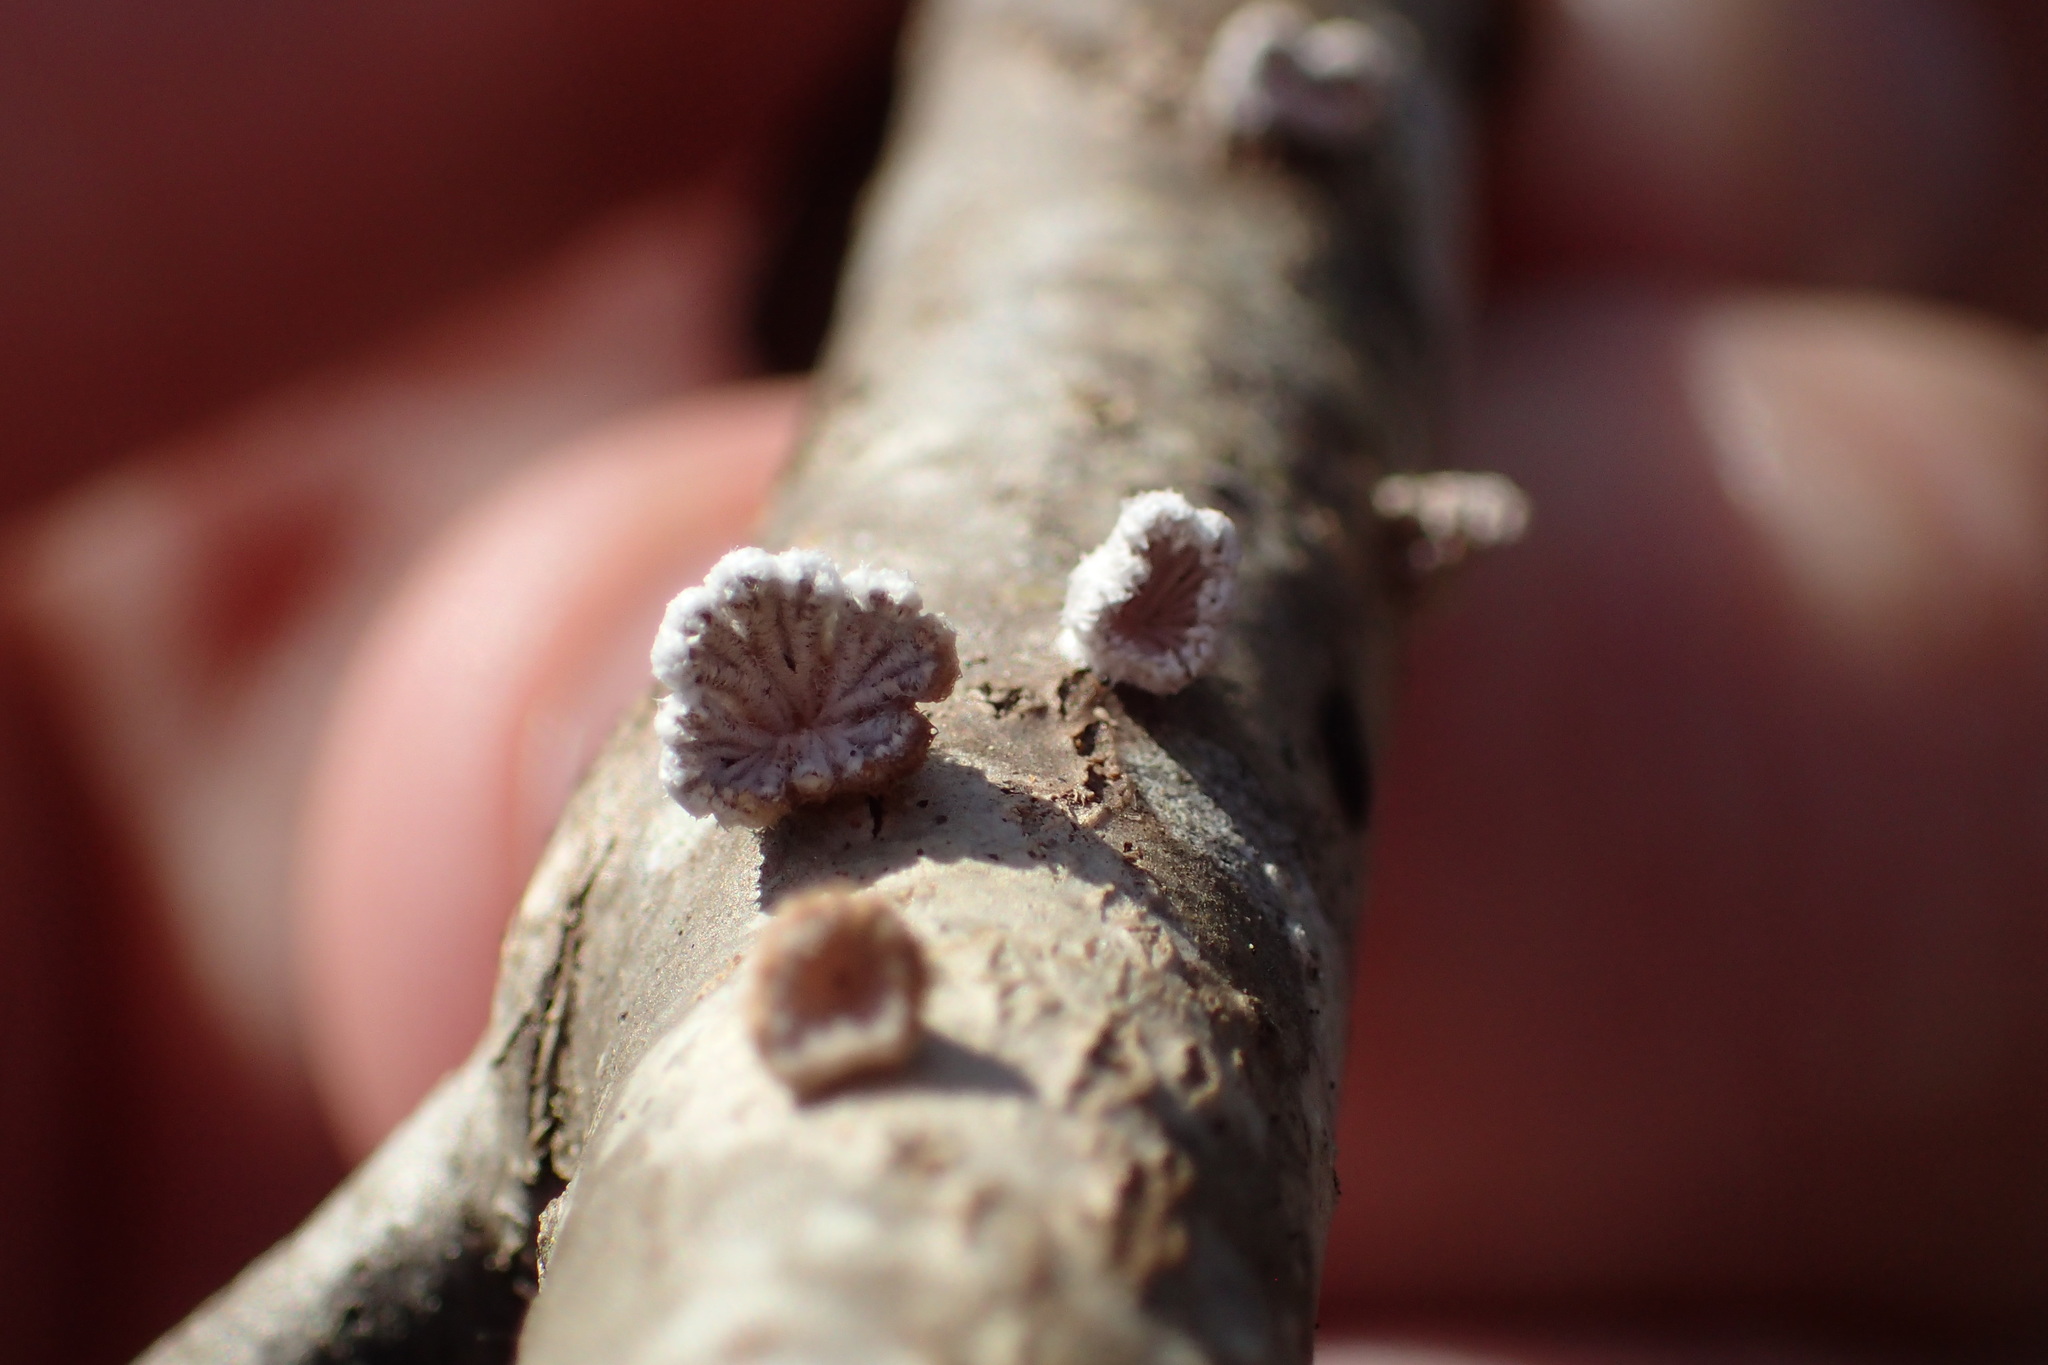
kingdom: Fungi
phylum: Basidiomycota
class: Agaricomycetes
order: Agaricales
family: Schizophyllaceae
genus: Schizophyllum
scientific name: Schizophyllum commune
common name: Common porecrust
